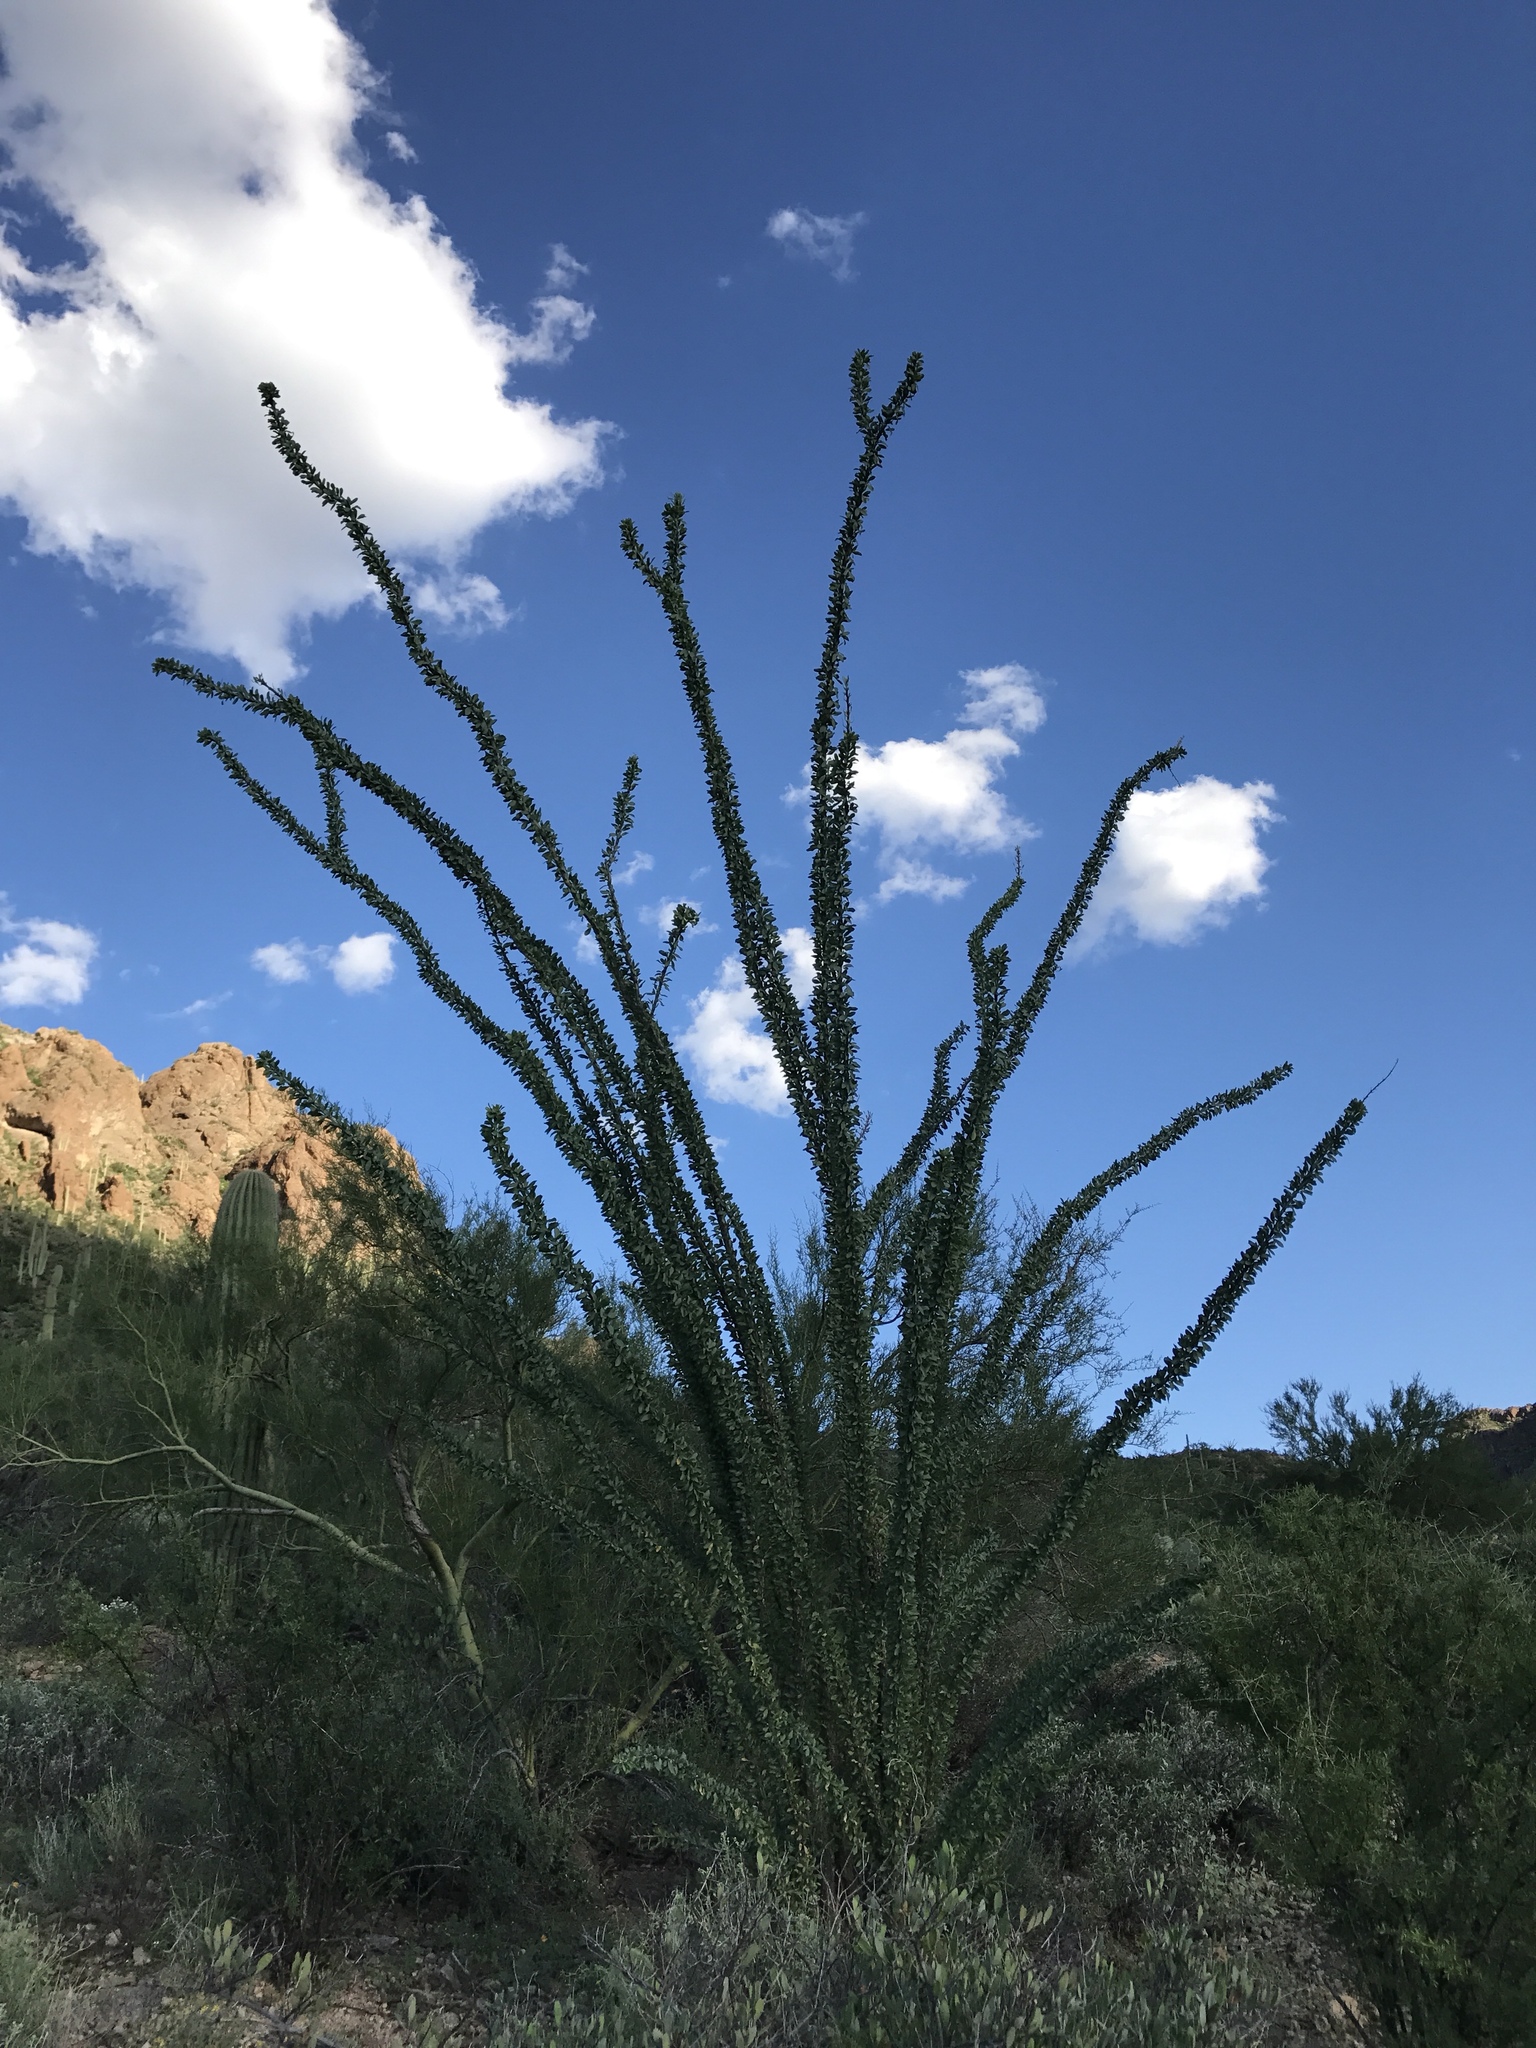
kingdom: Plantae
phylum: Tracheophyta
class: Magnoliopsida
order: Ericales
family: Fouquieriaceae
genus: Fouquieria
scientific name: Fouquieria splendens
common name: Vine-cactus
